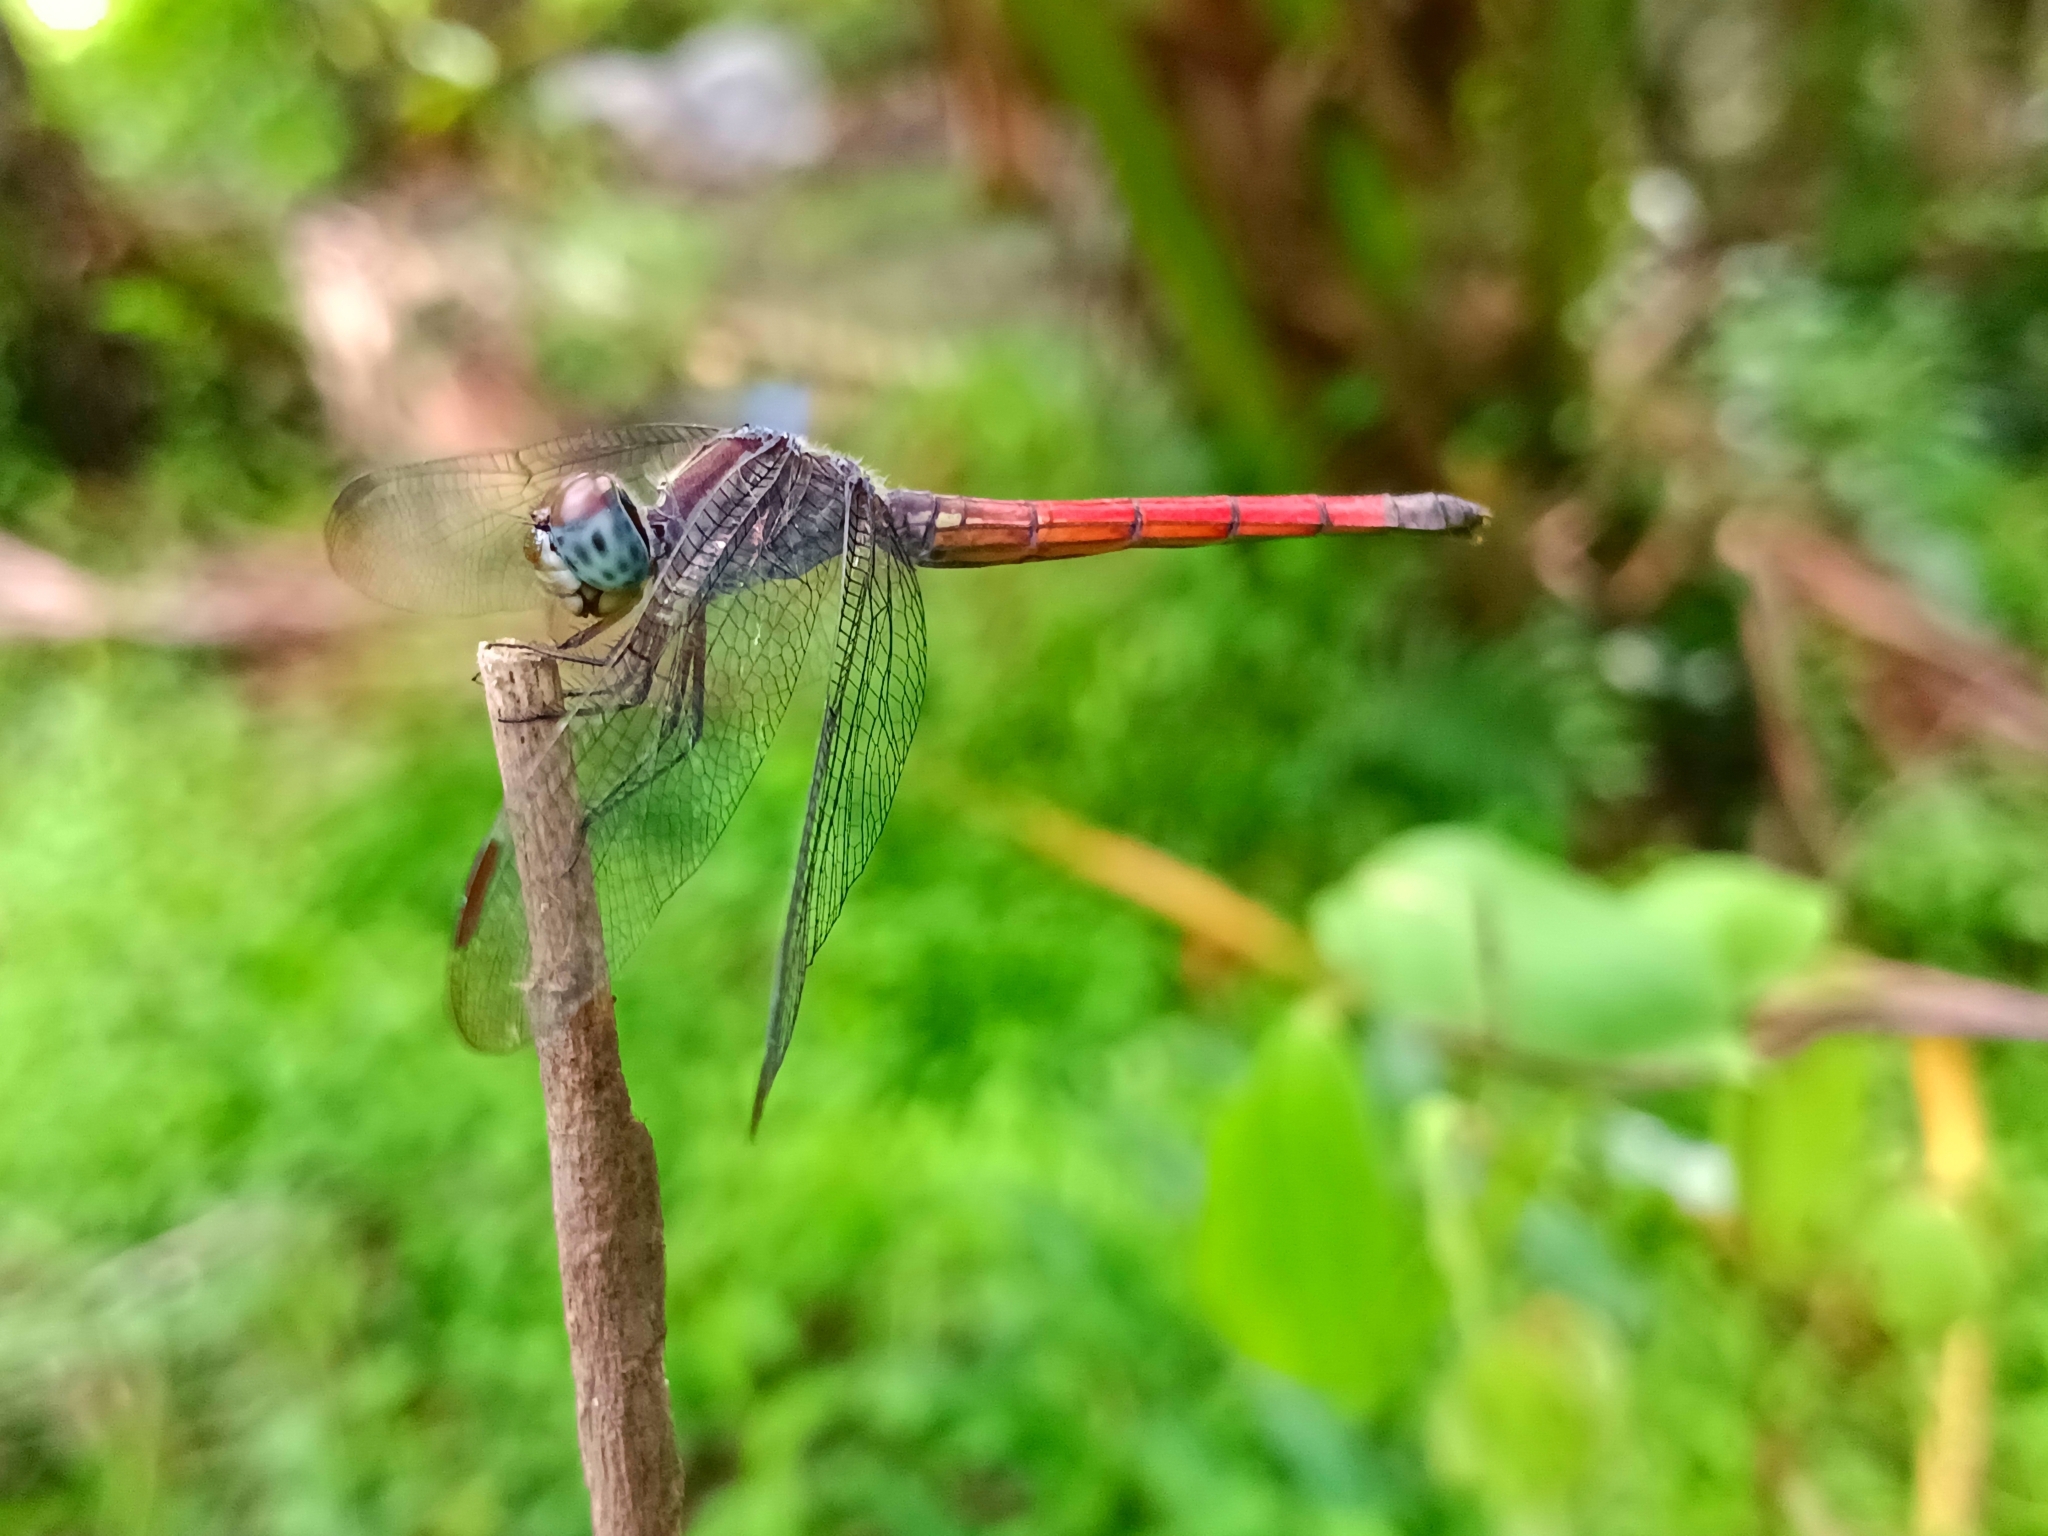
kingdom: Animalia
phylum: Arthropoda
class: Insecta
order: Odonata
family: Libellulidae
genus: Lathrecista
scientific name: Lathrecista asiatica
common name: Scarlet grenadier
